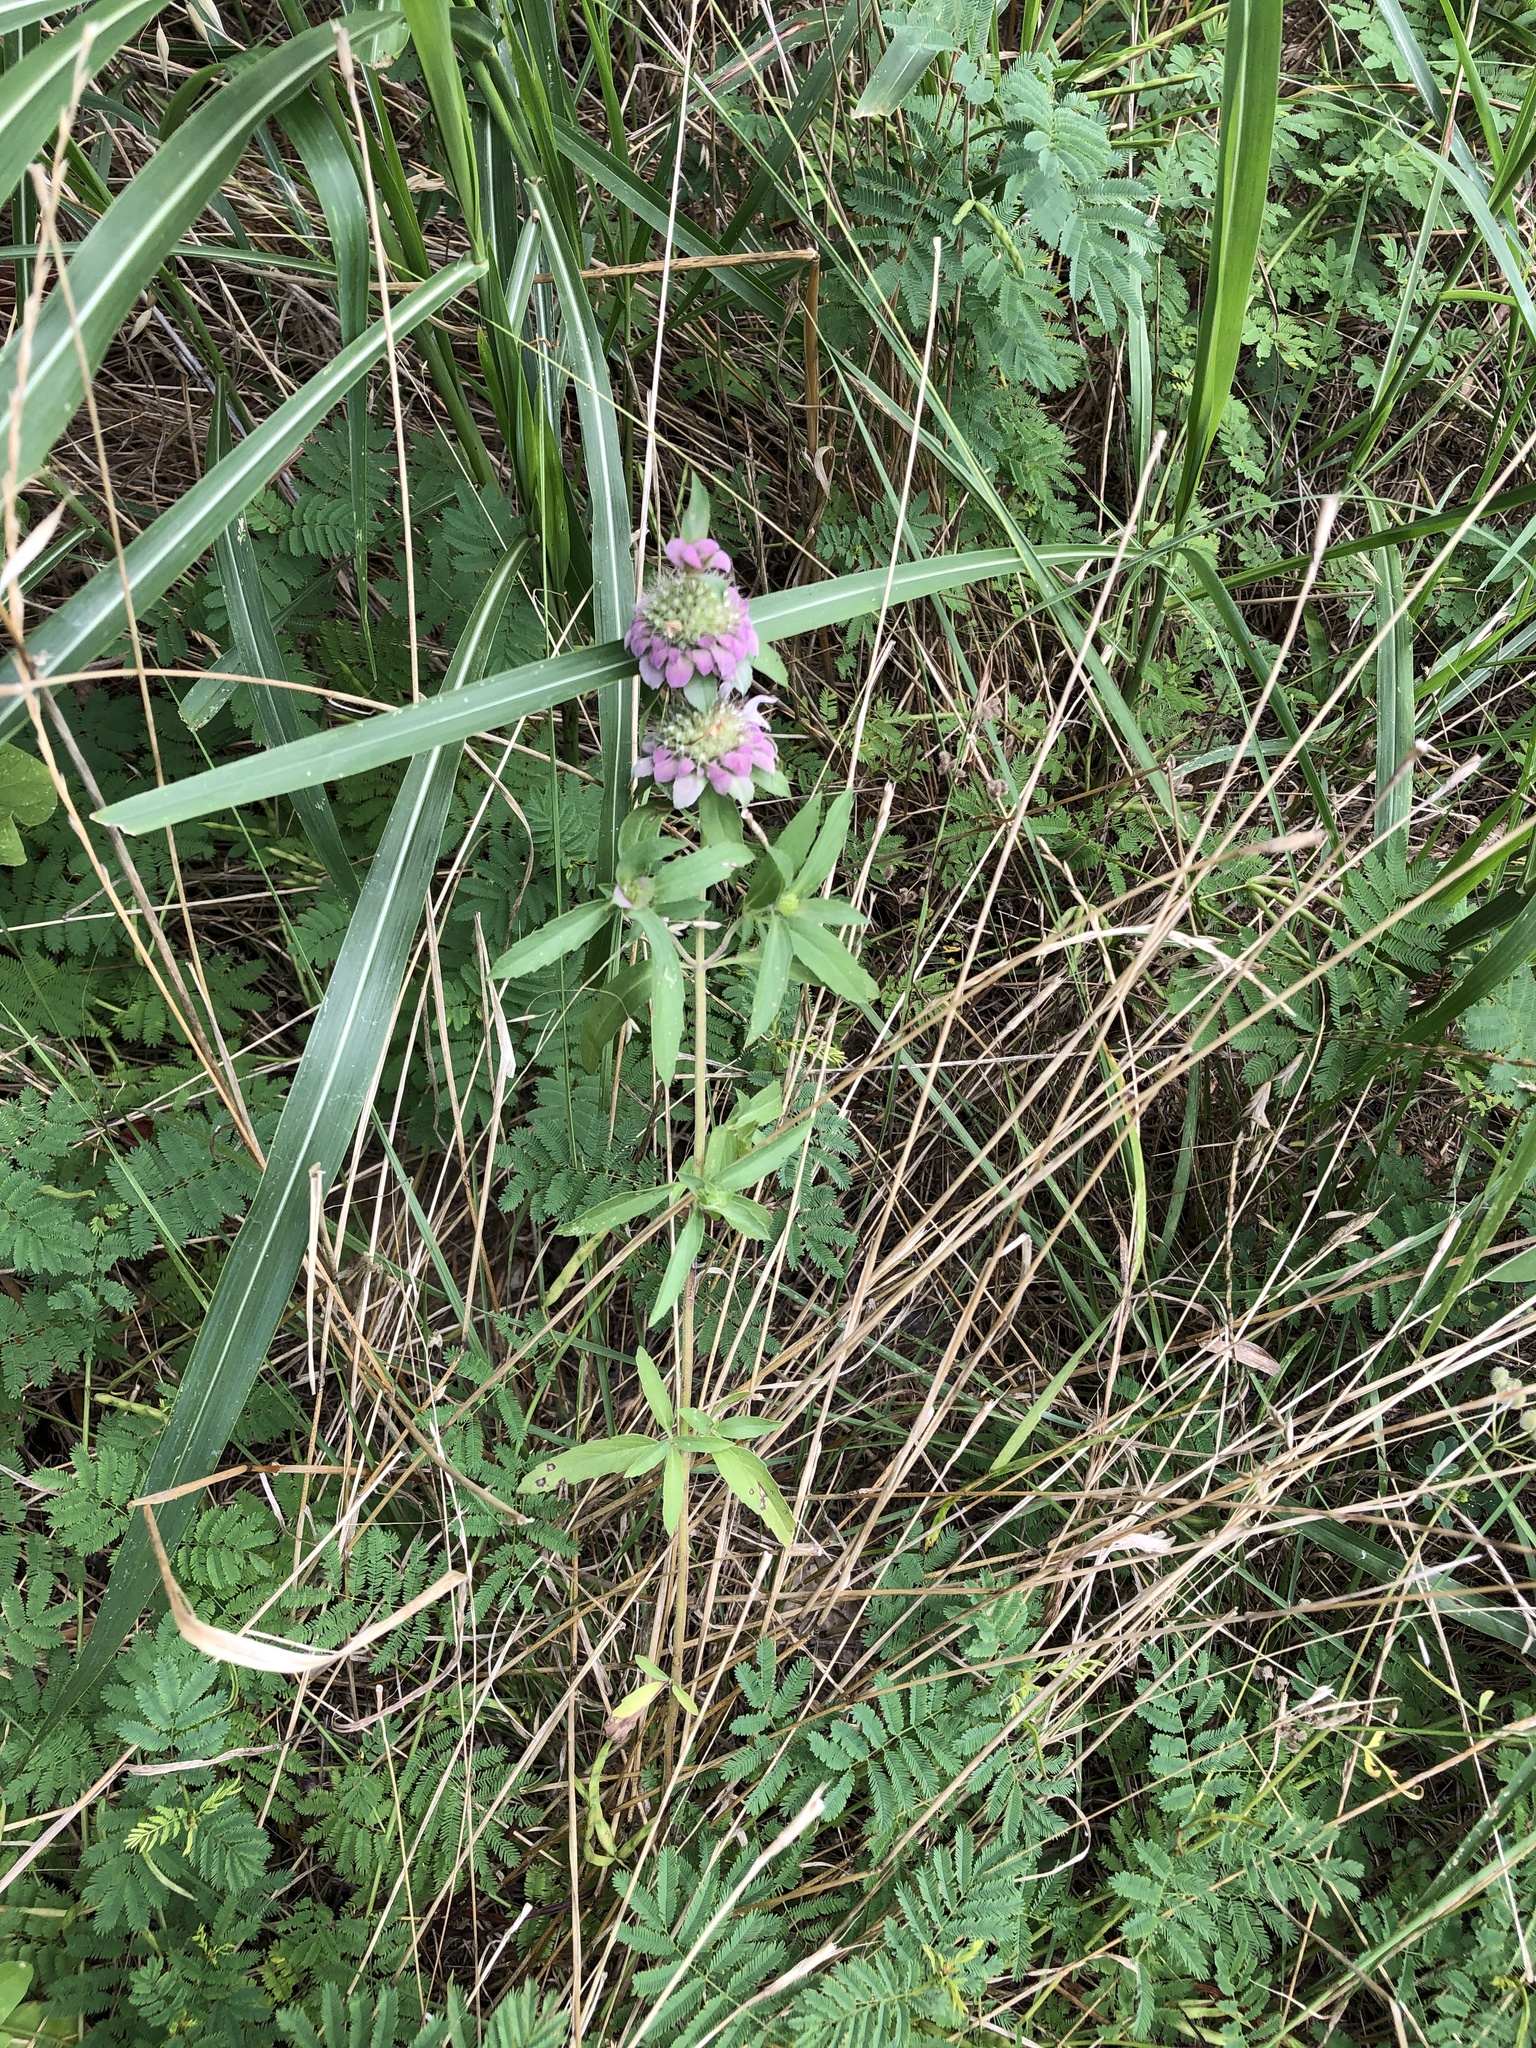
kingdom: Plantae
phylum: Tracheophyta
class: Magnoliopsida
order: Lamiales
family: Lamiaceae
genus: Monarda
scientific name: Monarda citriodora
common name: Lemon beebalm
